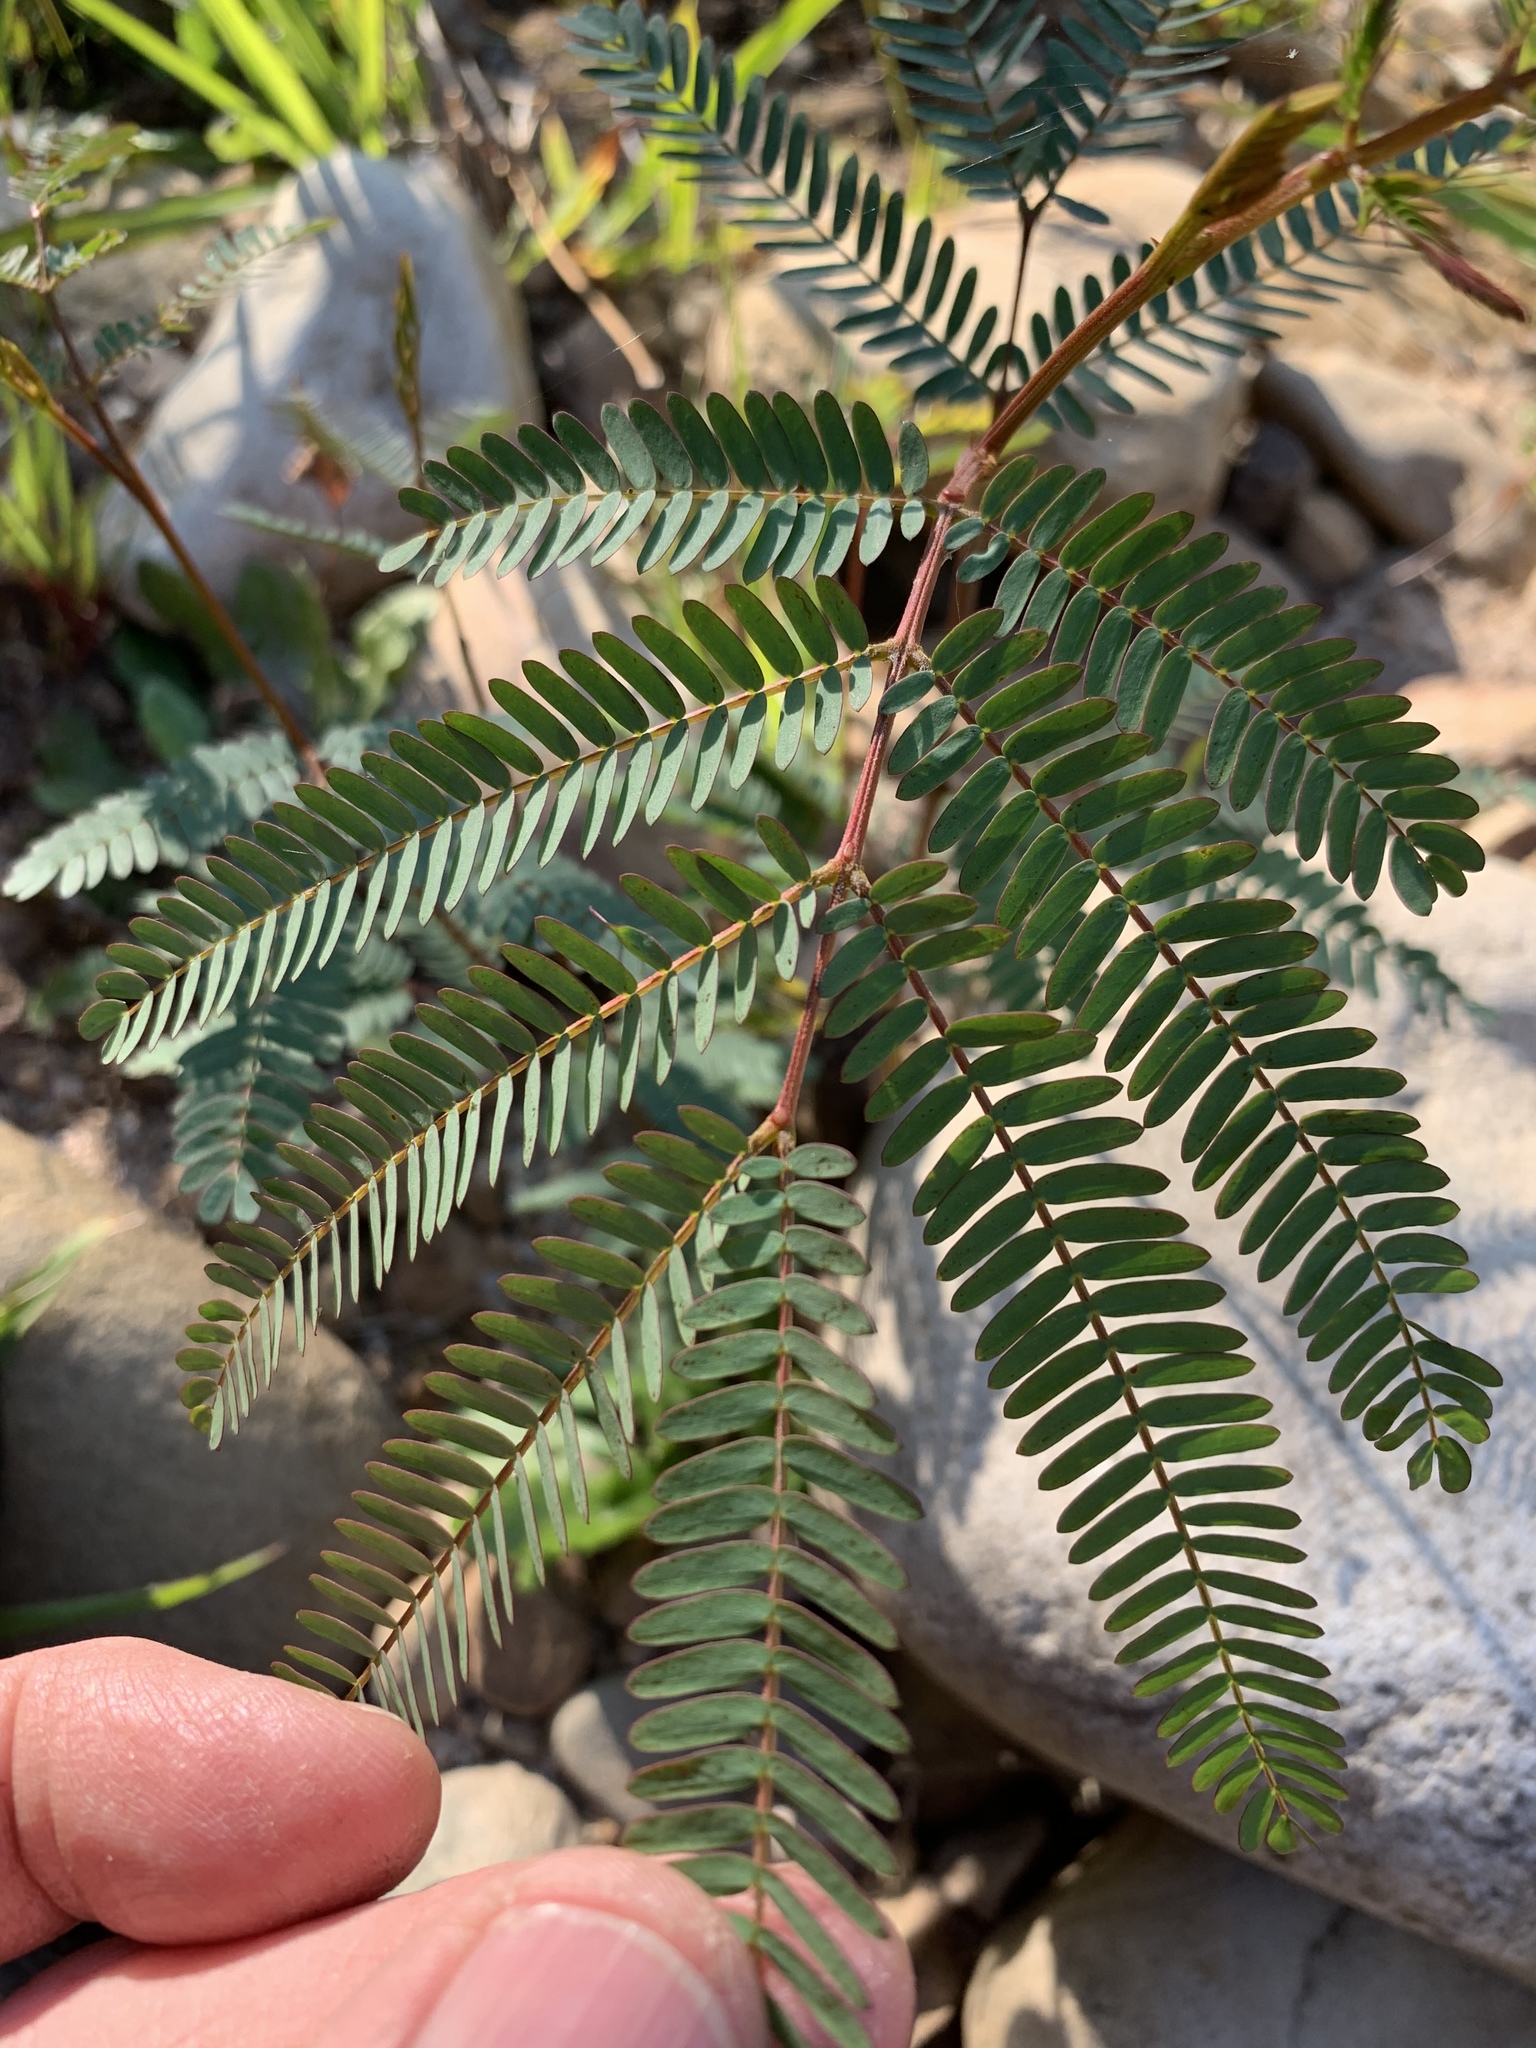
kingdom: Plantae
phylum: Tracheophyta
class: Magnoliopsida
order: Fabales
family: Fabaceae
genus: Paraserianthes
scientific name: Paraserianthes lophantha
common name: Plume albizia
